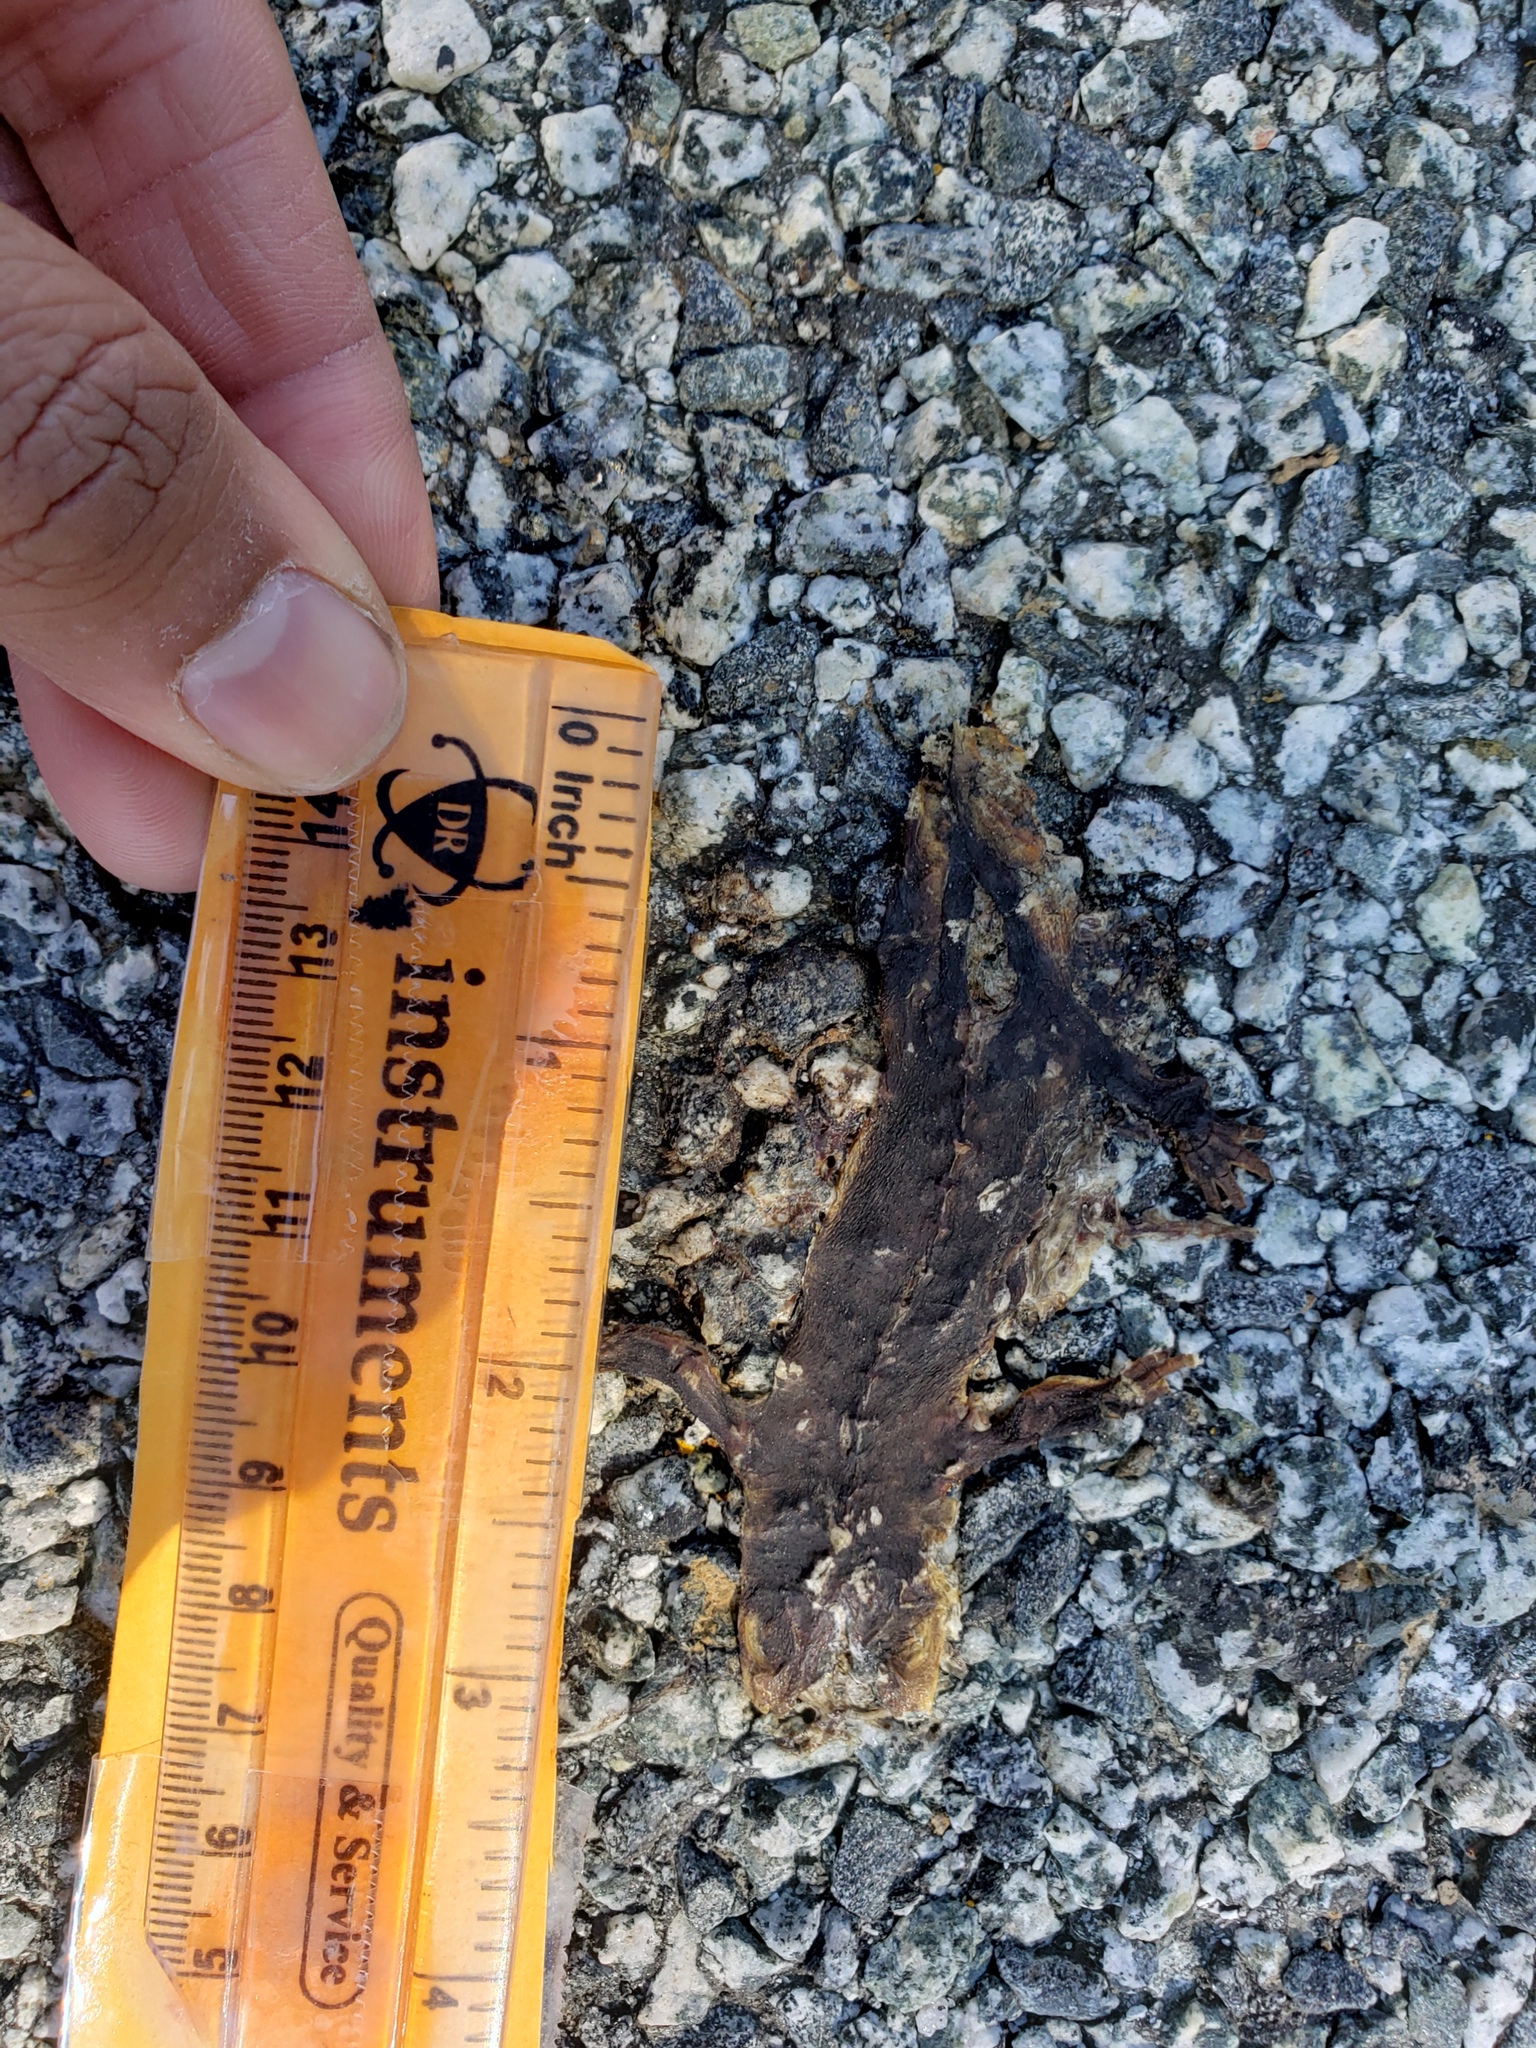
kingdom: Animalia
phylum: Chordata
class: Amphibia
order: Caudata
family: Salamandridae
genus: Taricha
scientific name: Taricha
